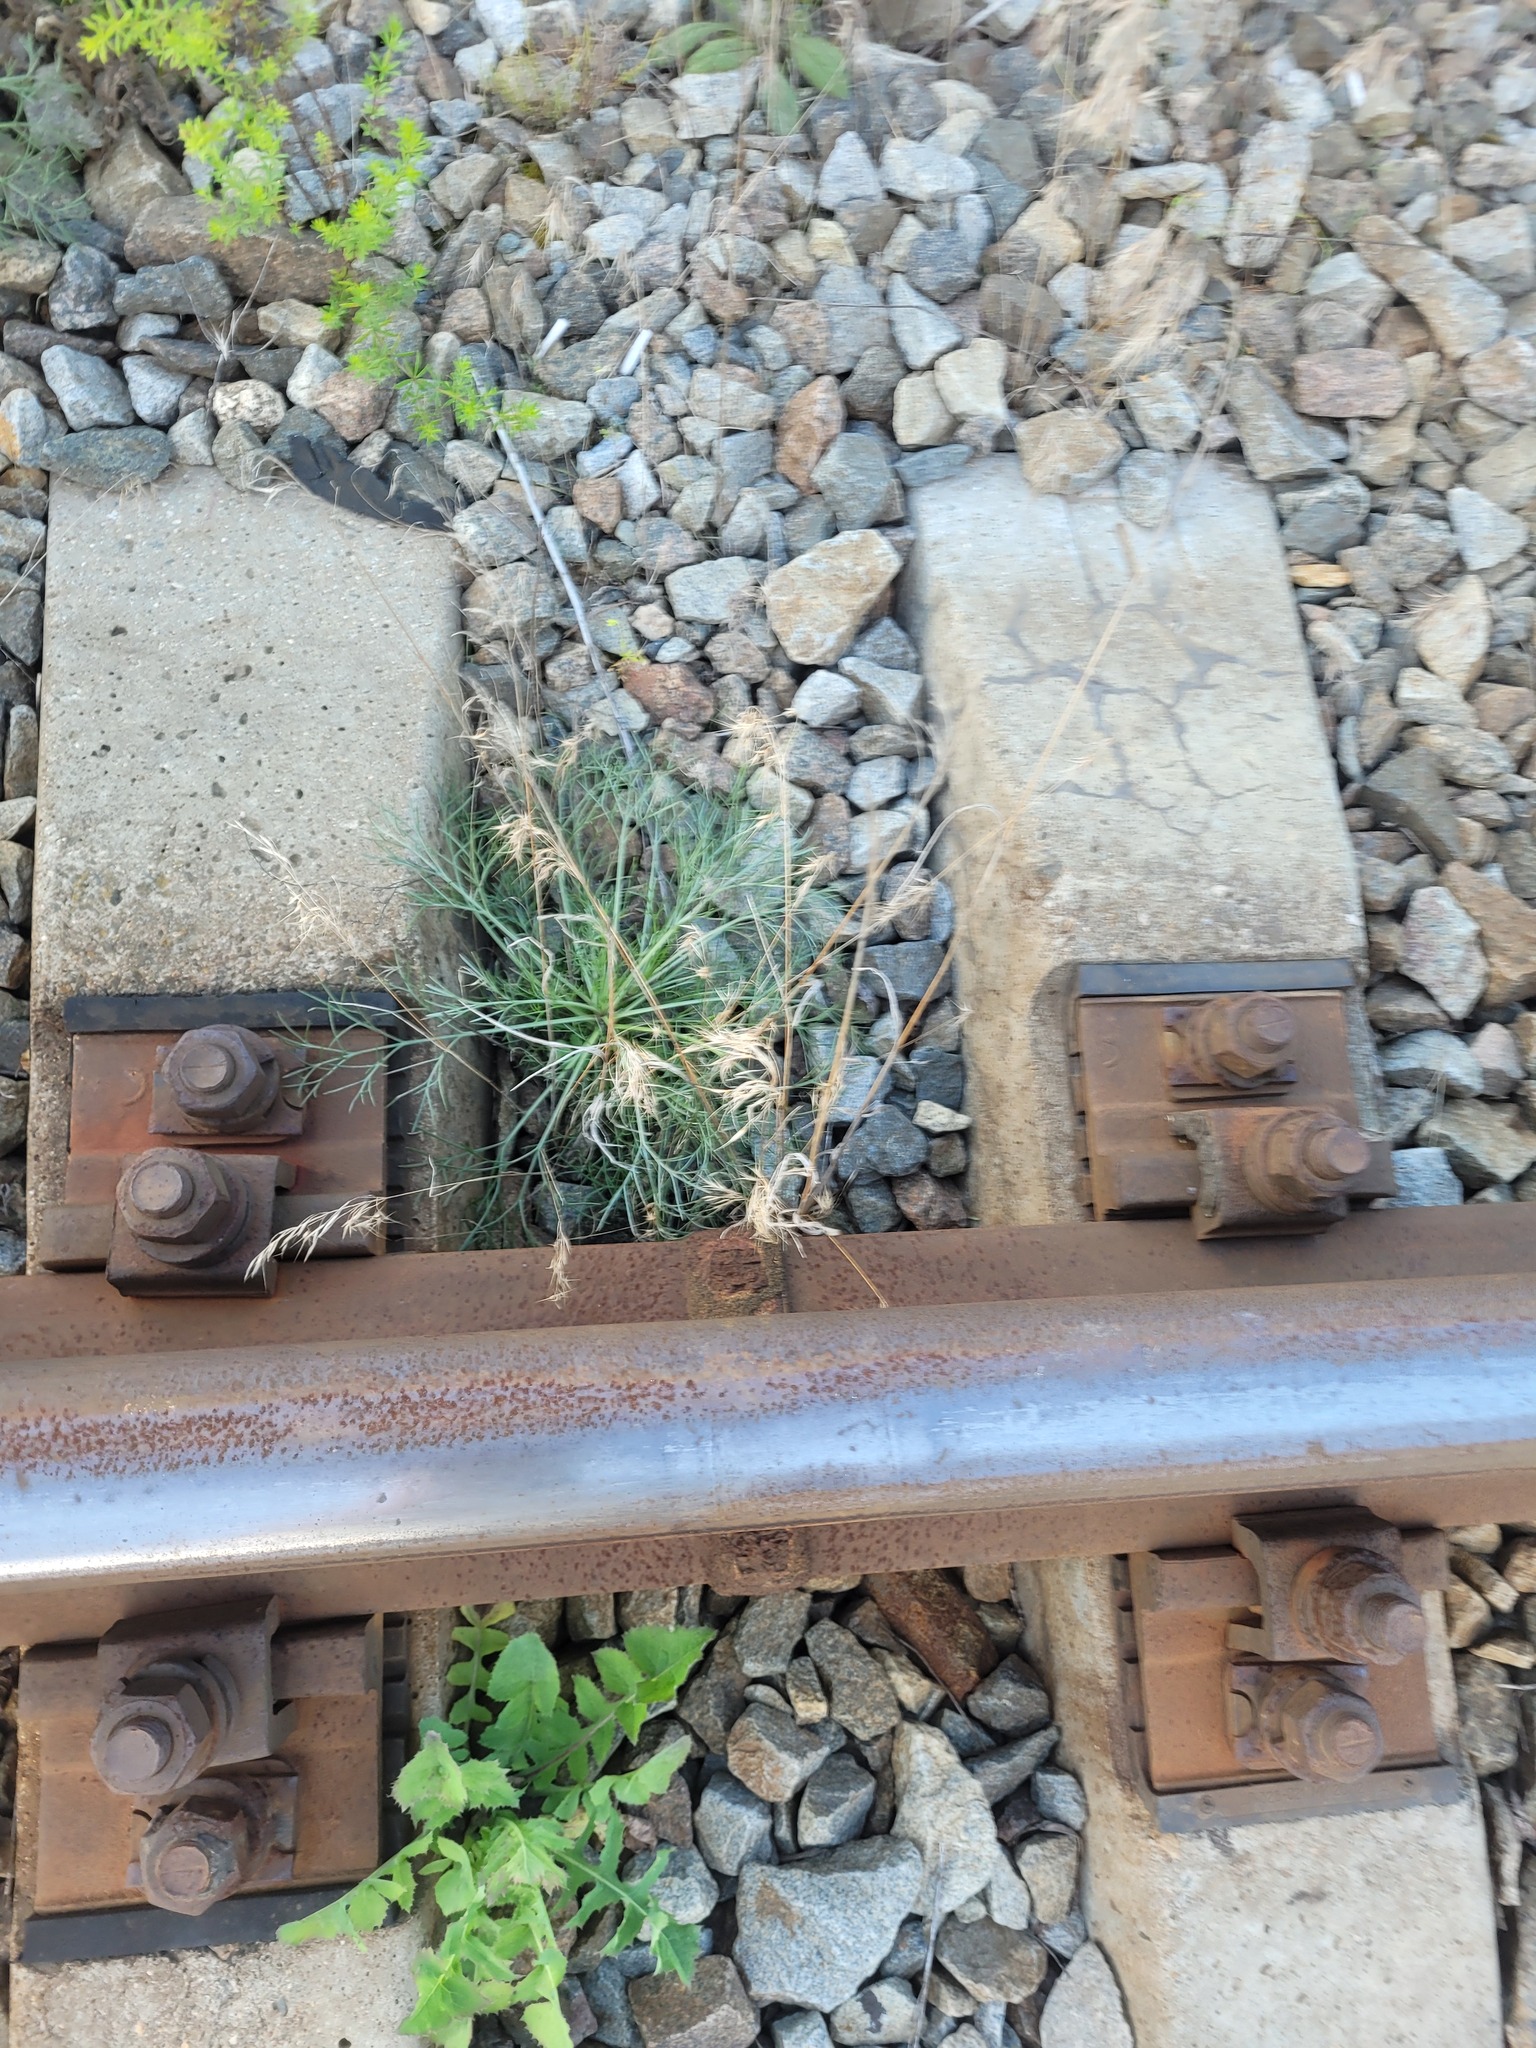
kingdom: Plantae
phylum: Tracheophyta
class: Liliopsida
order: Poales
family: Poaceae
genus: Bromus
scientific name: Bromus tectorum
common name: Cheatgrass
